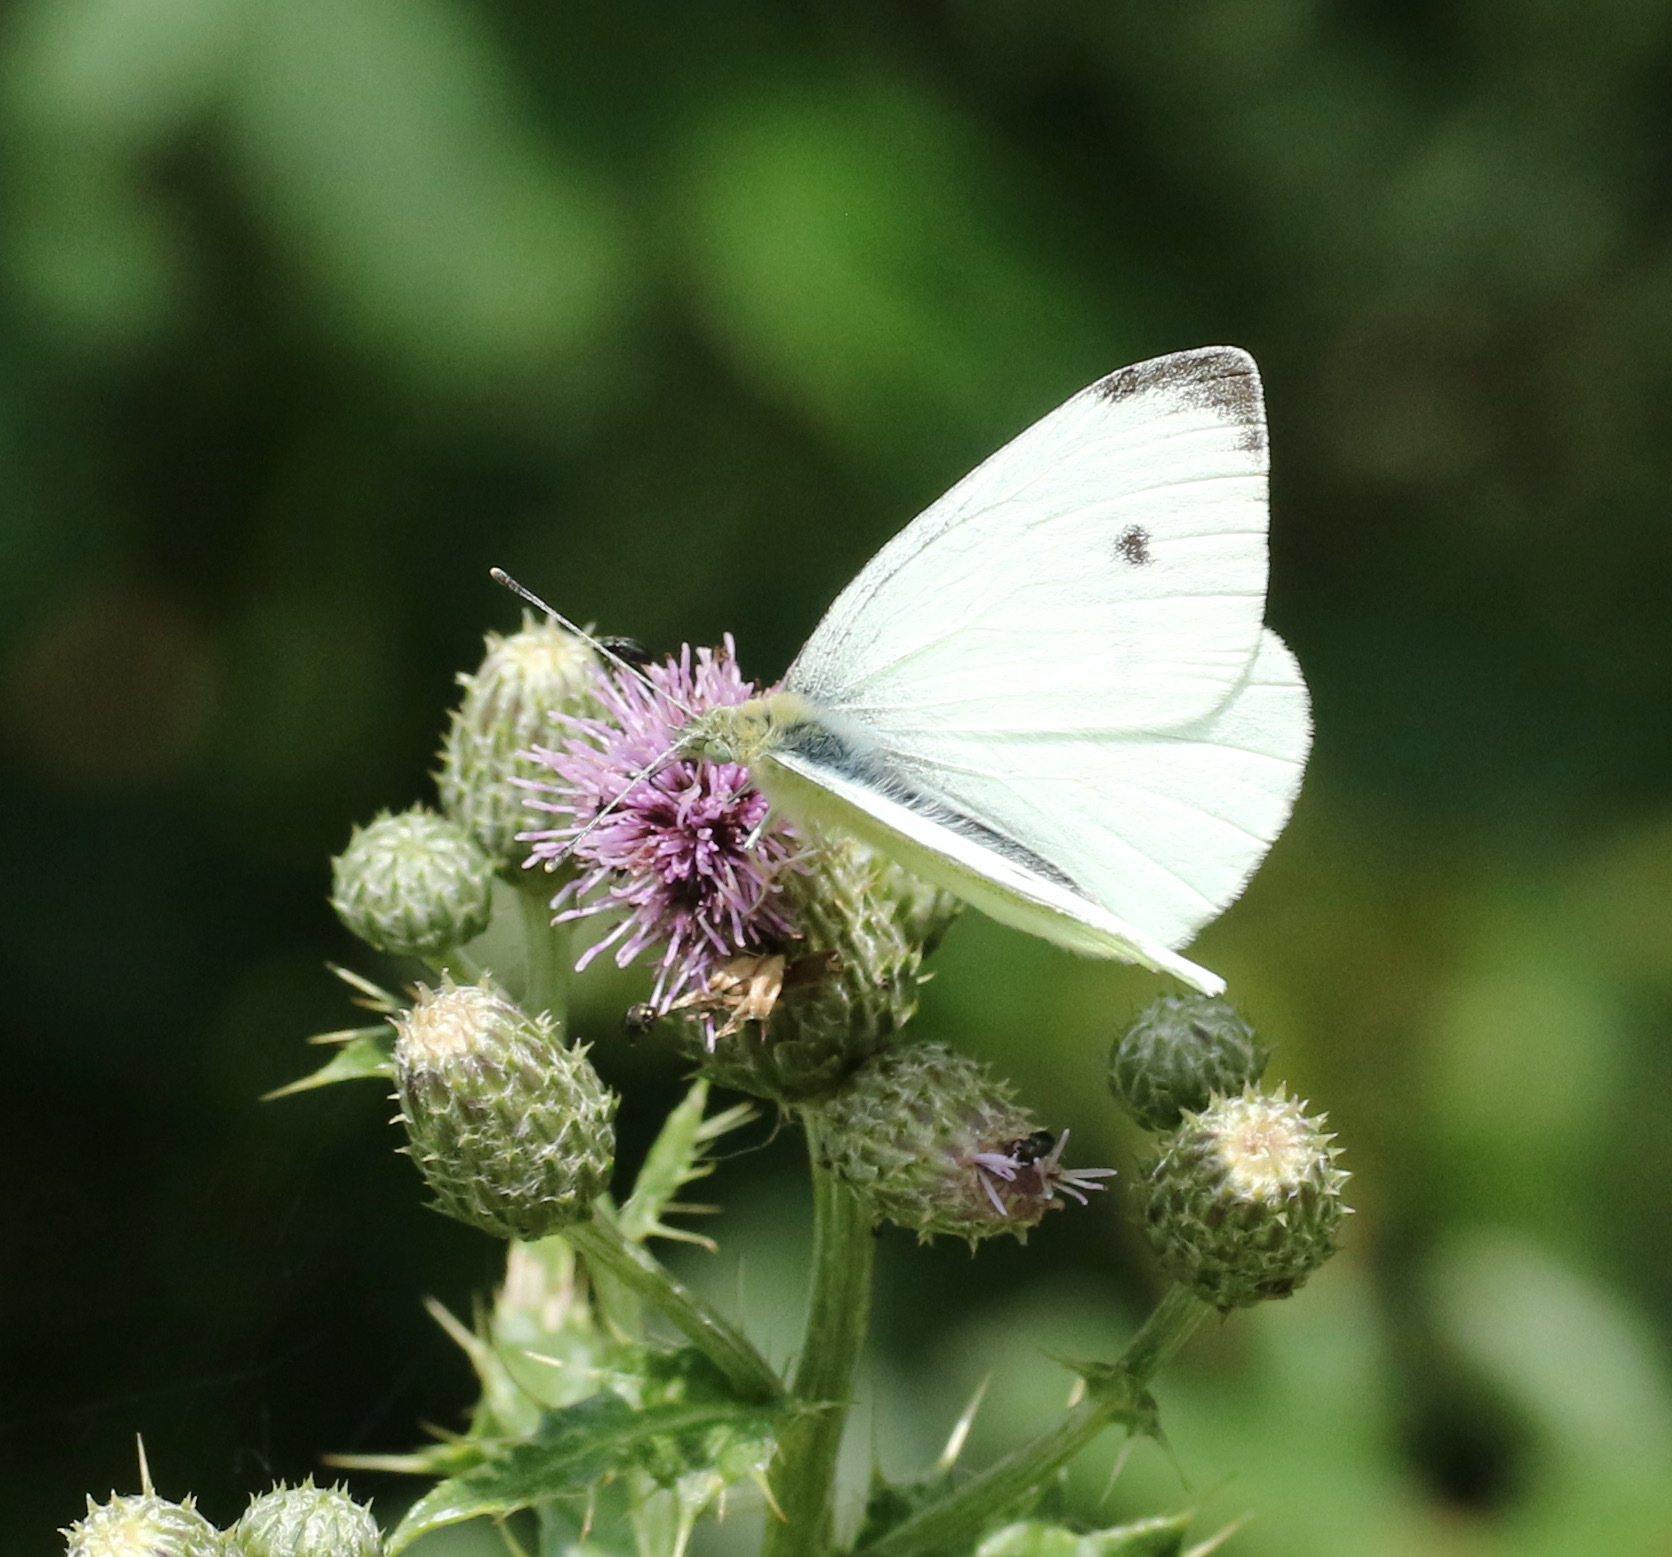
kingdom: Animalia
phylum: Arthropoda
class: Insecta
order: Lepidoptera
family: Pieridae
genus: Pieris
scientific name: Pieris rapae
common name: Small white
